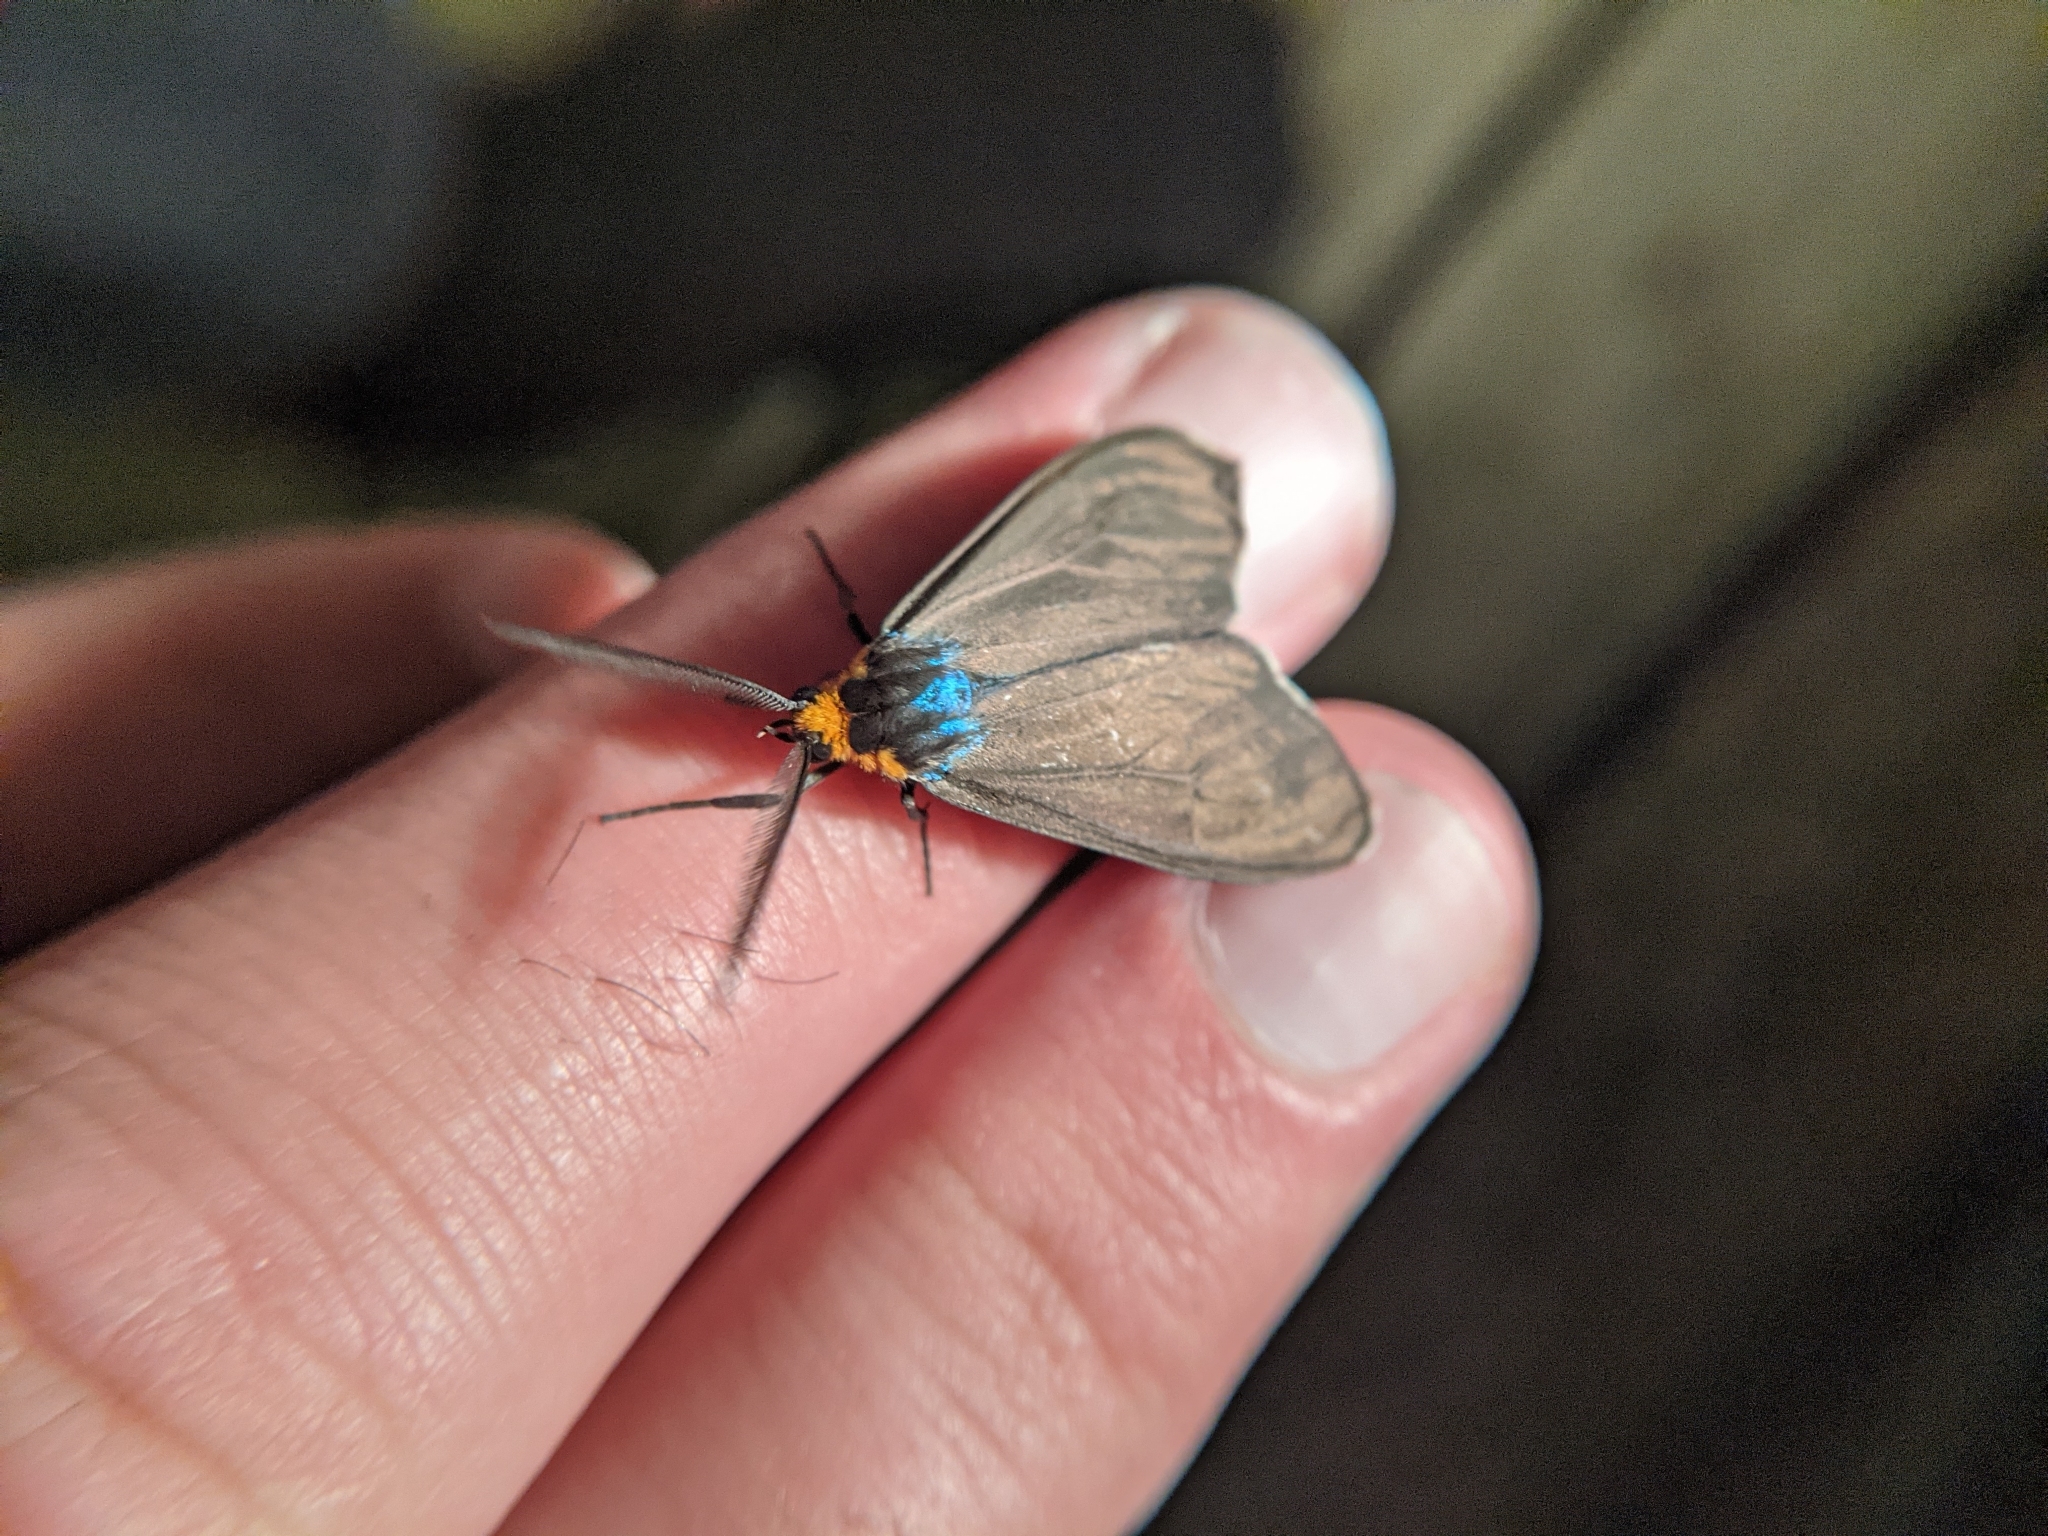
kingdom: Animalia
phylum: Arthropoda
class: Insecta
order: Lepidoptera
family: Erebidae
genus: Ctenucha
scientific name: Ctenucha virginica
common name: Virginia ctenucha moth
